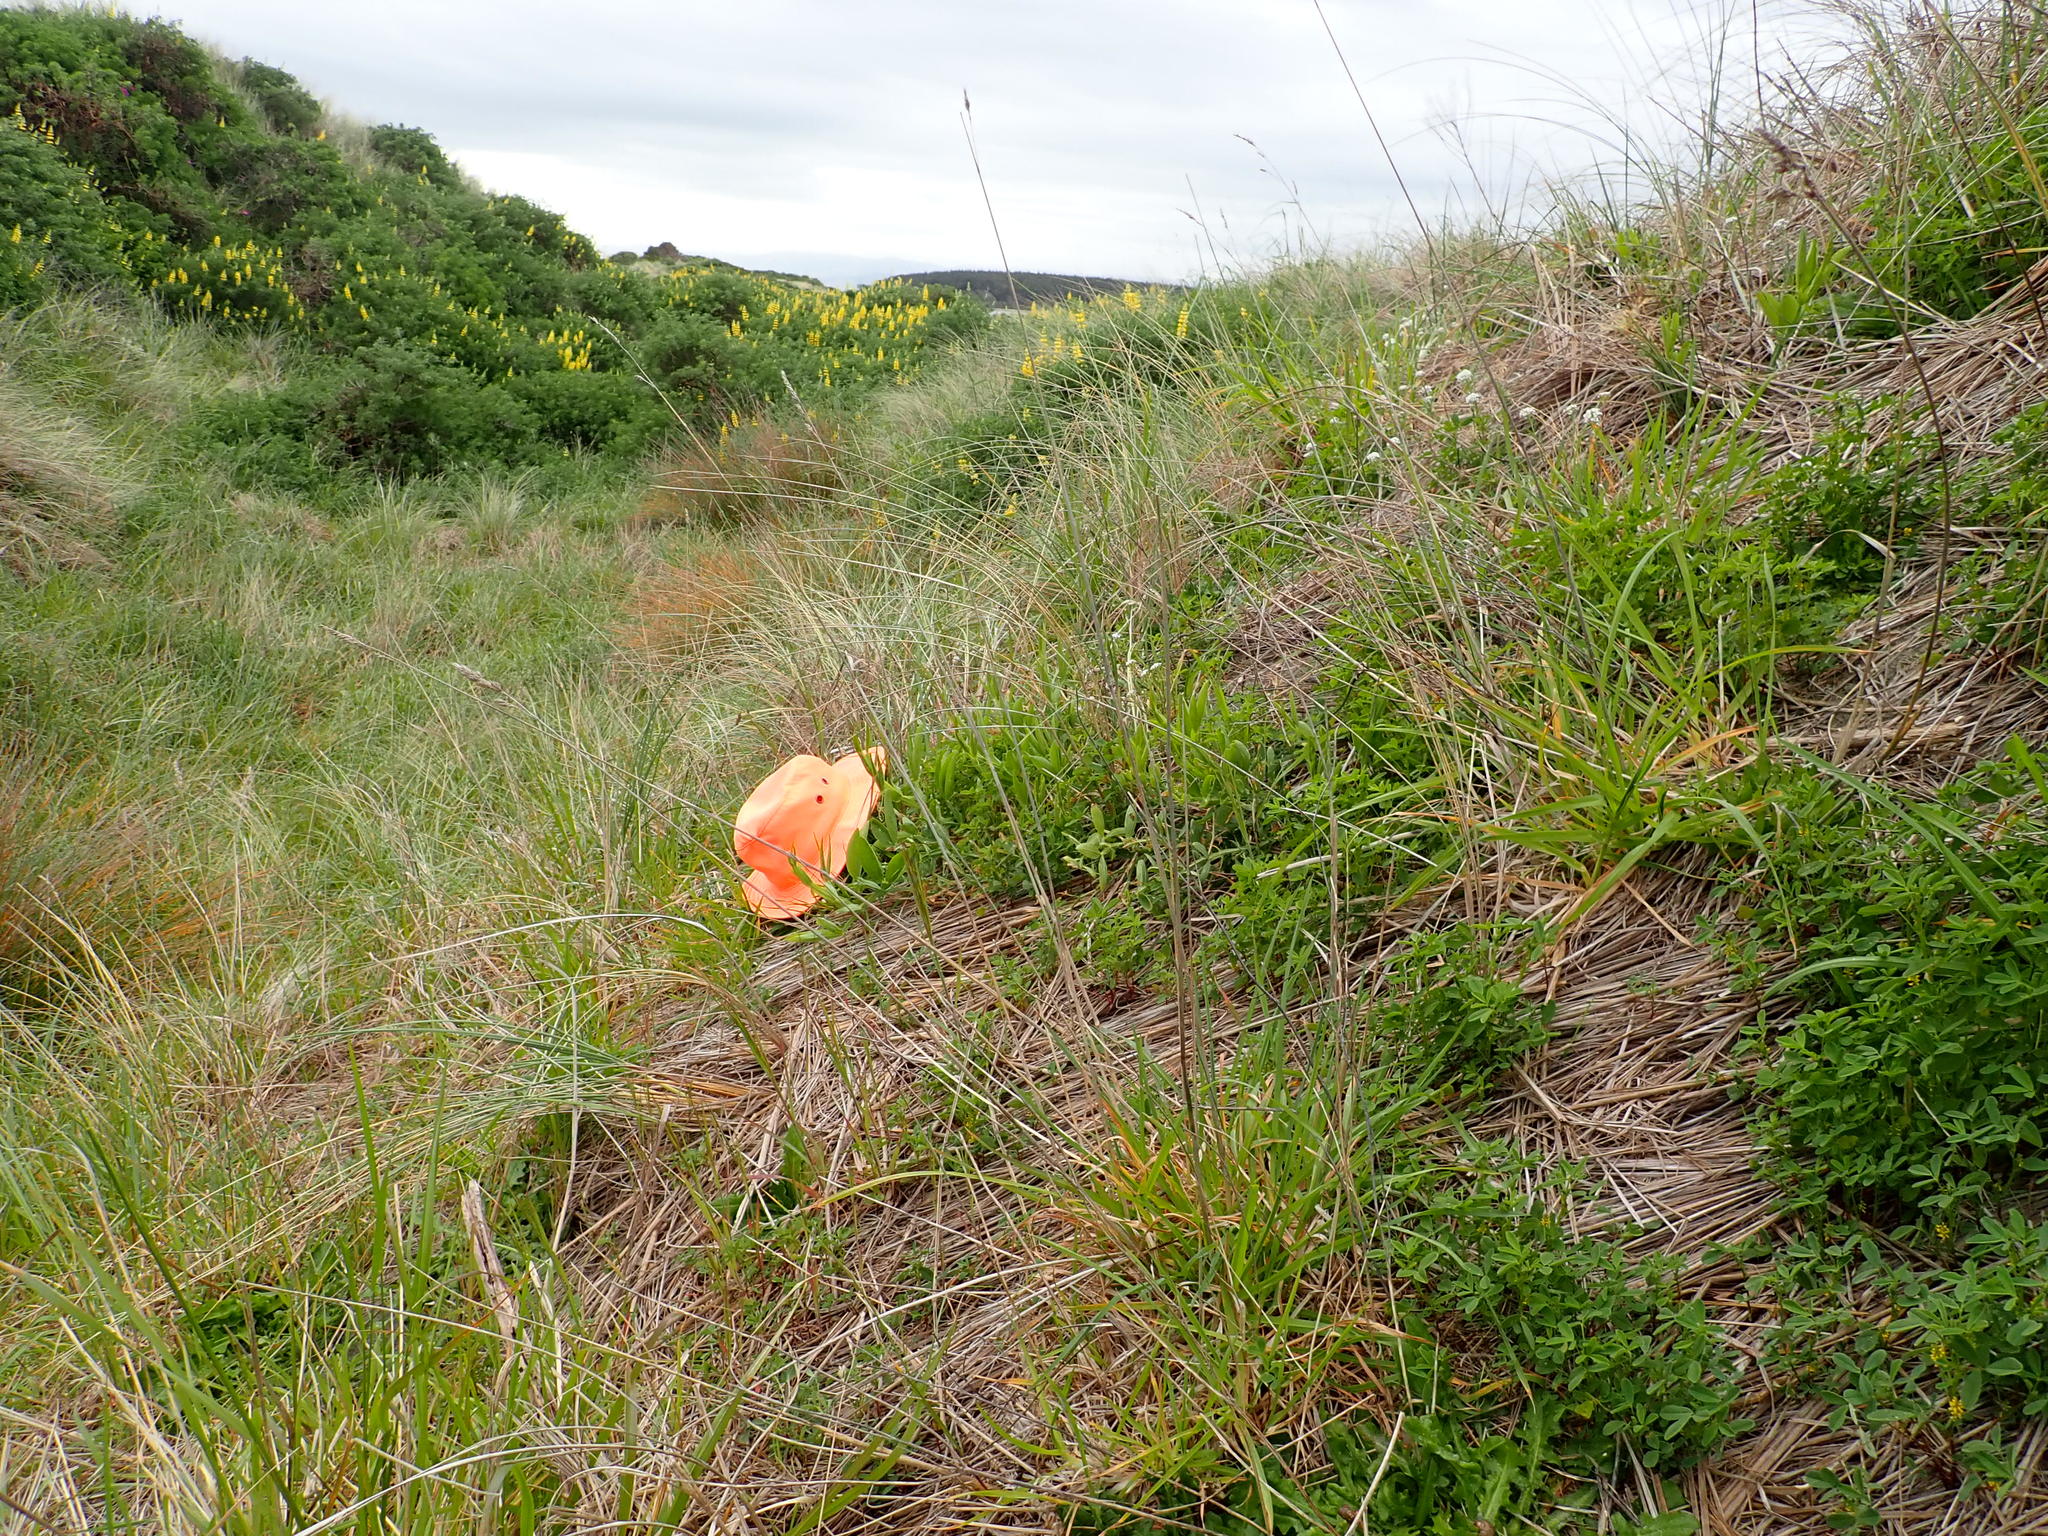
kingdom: Plantae
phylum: Tracheophyta
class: Magnoliopsida
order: Fabales
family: Fabaceae
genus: Lathyrus
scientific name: Lathyrus latifolius
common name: Perennial pea
